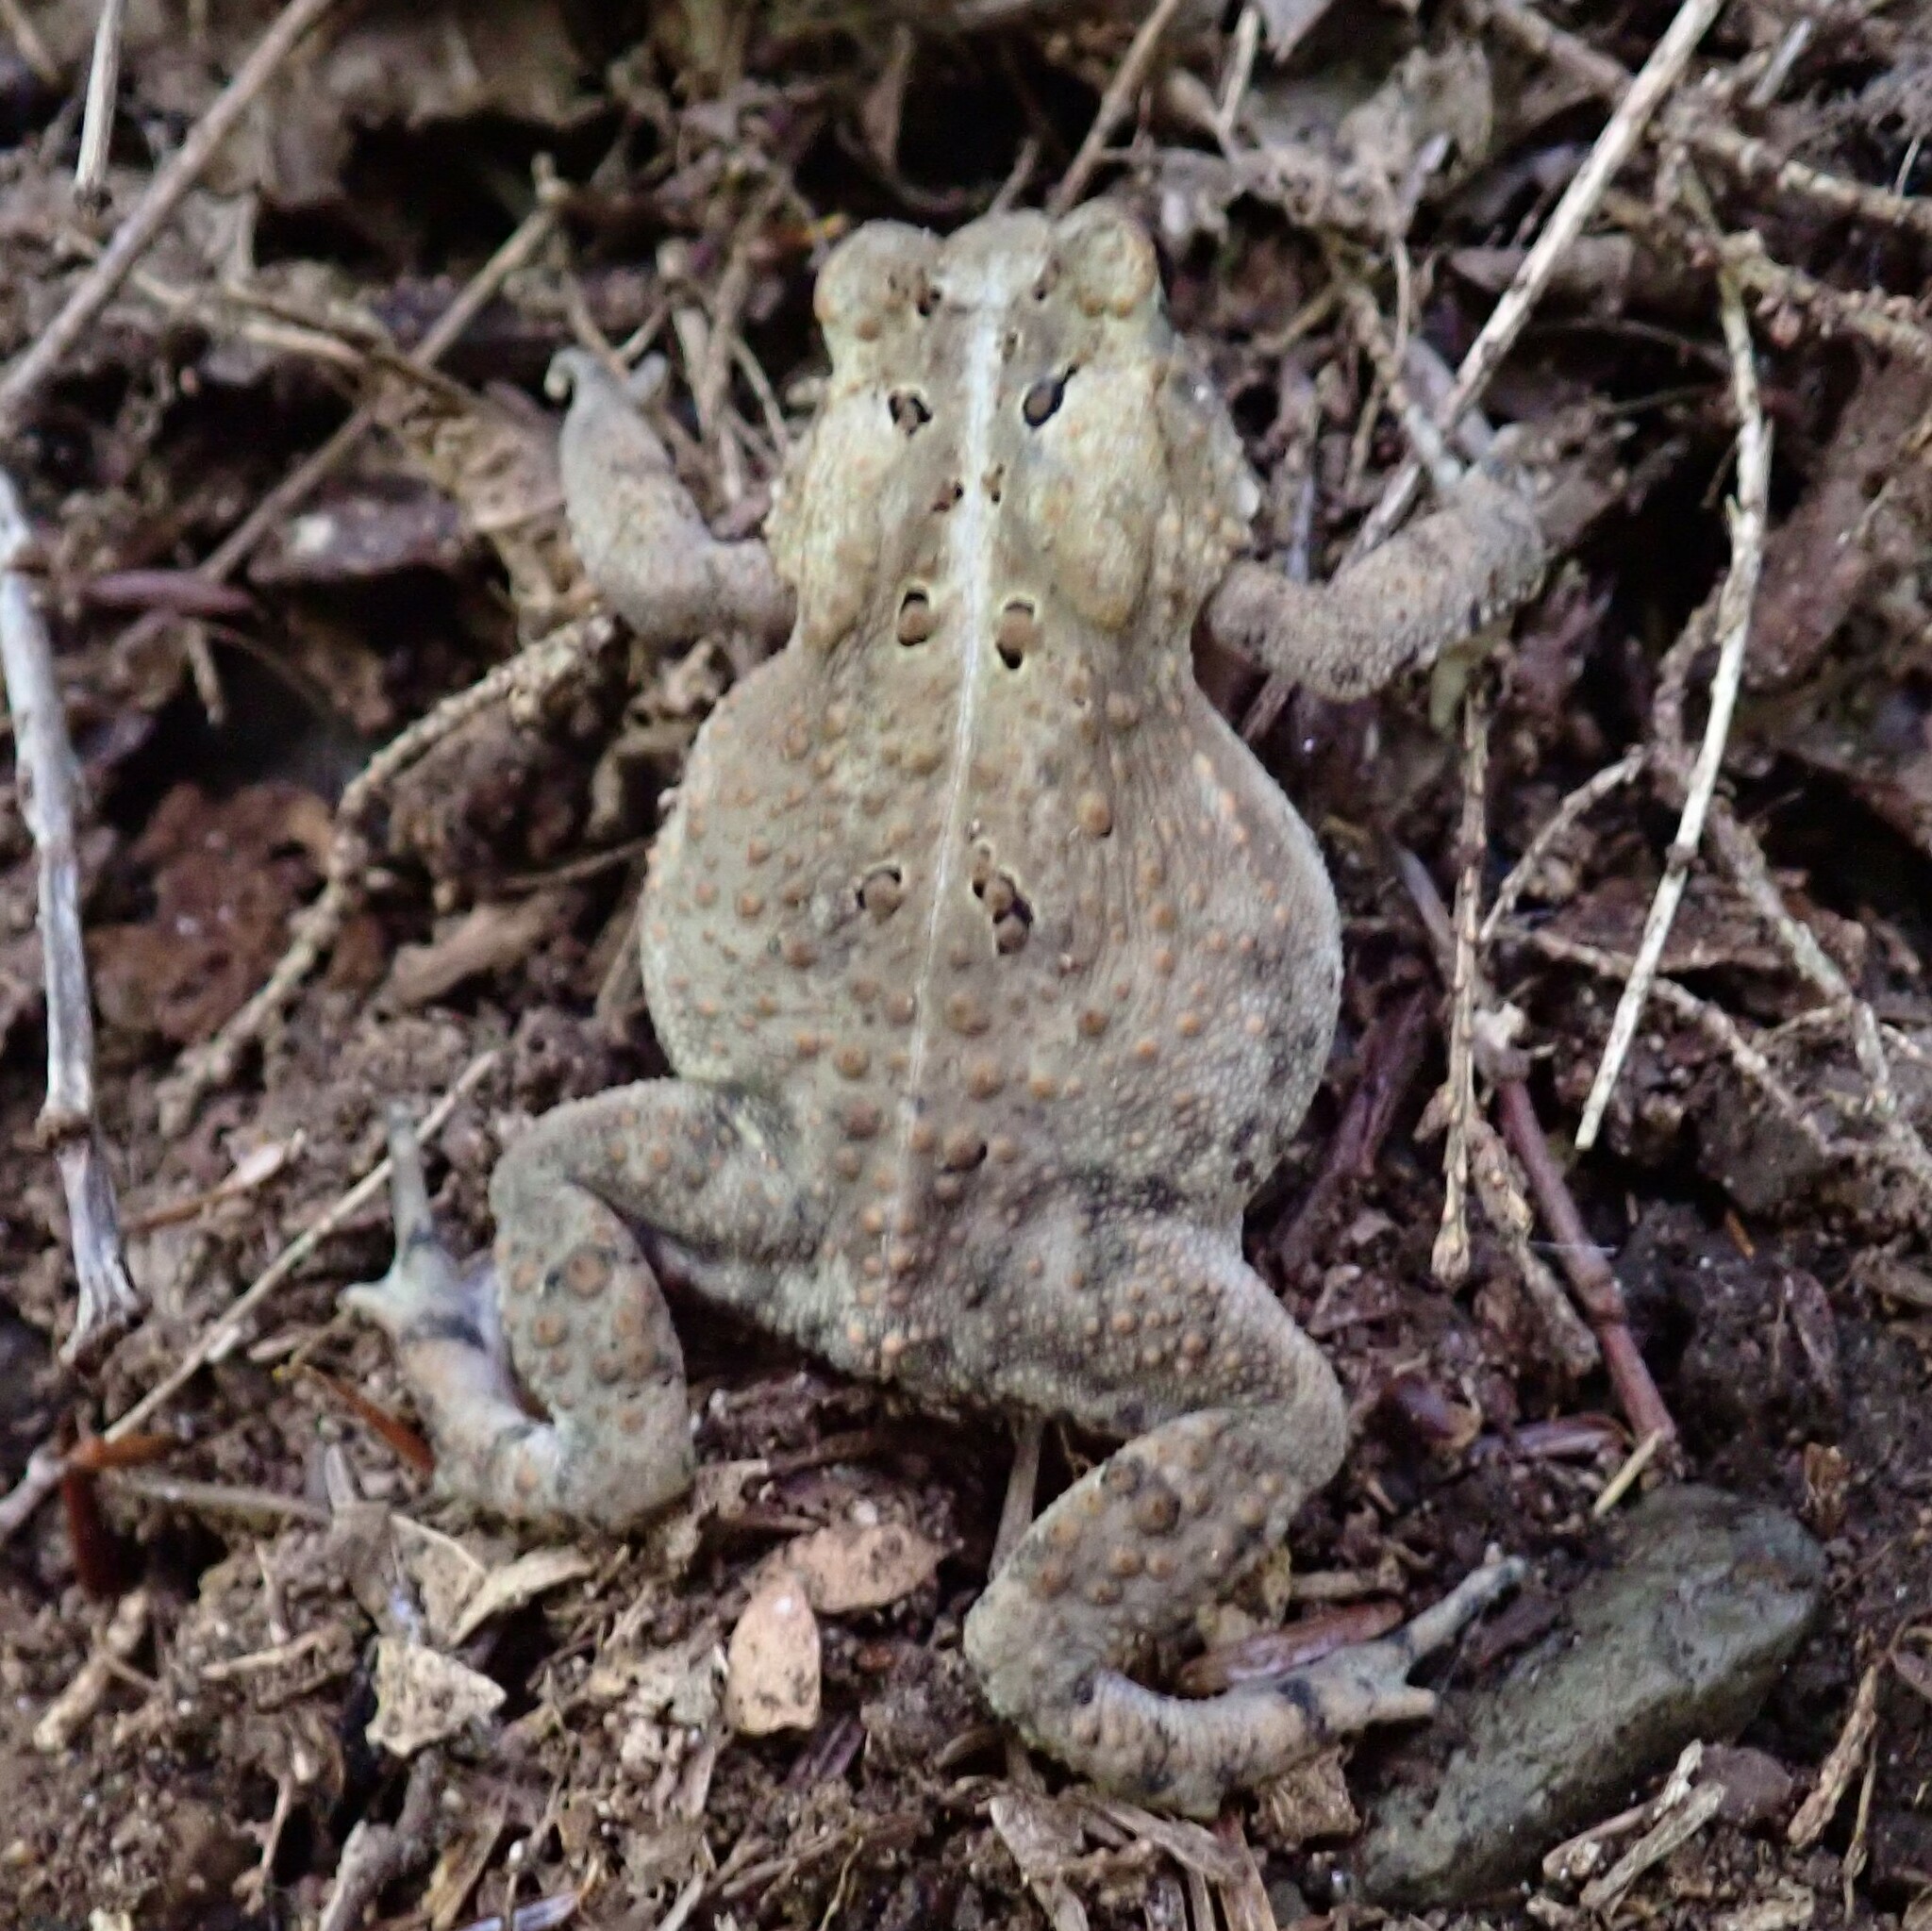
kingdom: Animalia
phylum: Chordata
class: Amphibia
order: Anura
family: Bufonidae
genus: Anaxyrus
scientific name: Anaxyrus americanus
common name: American toad
